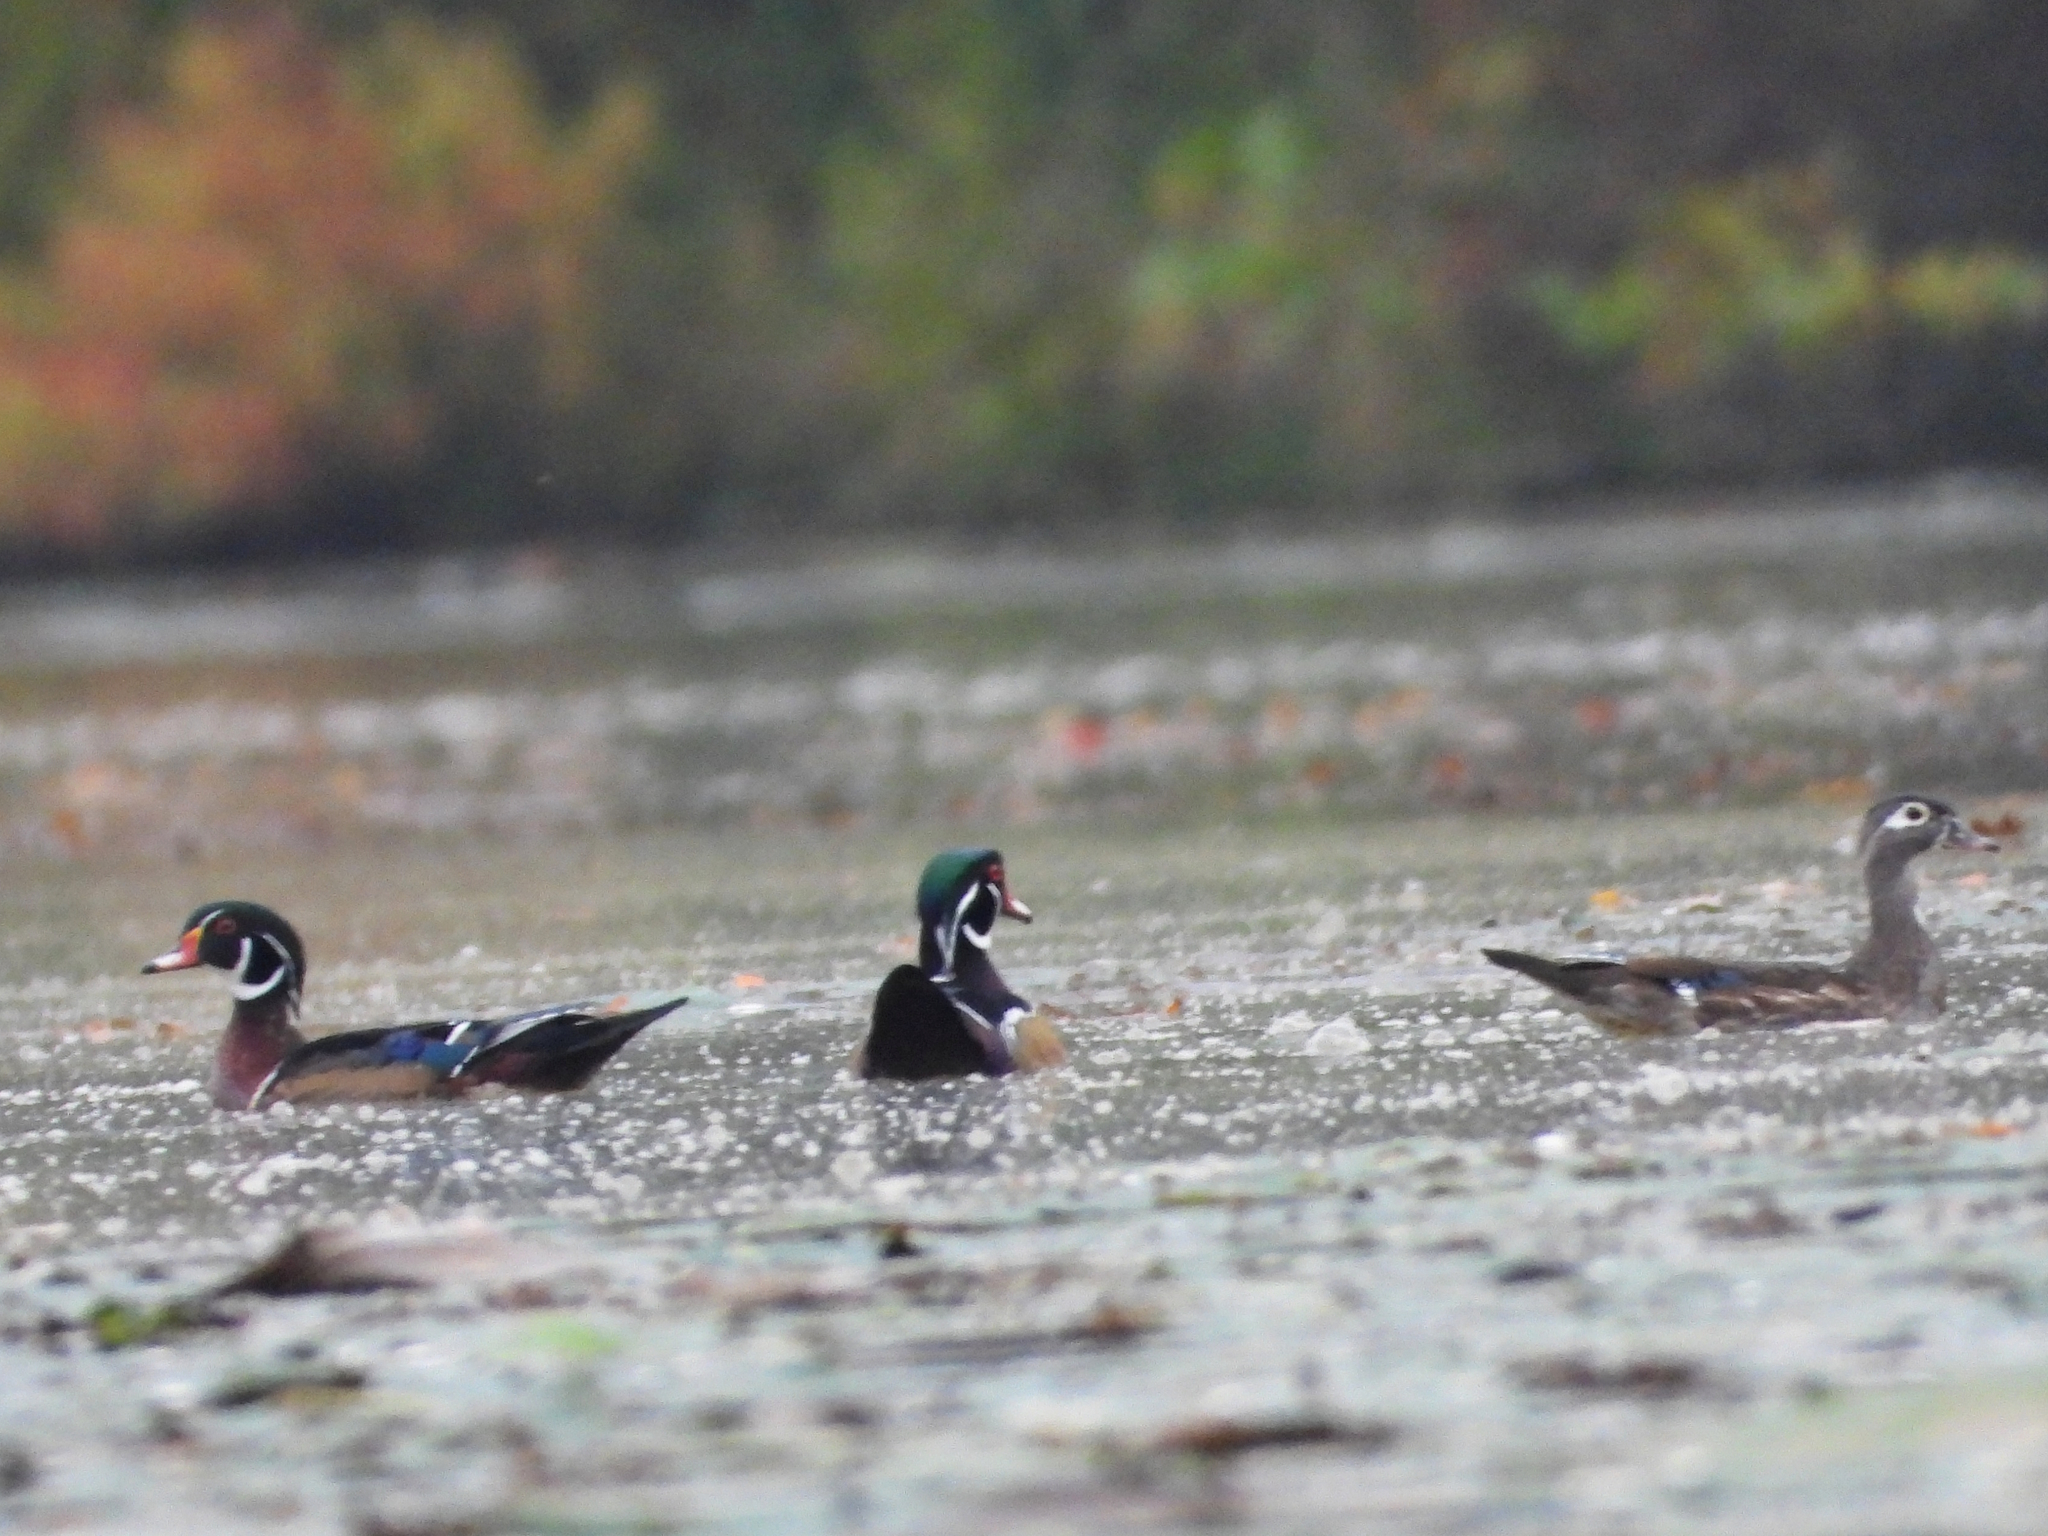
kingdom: Animalia
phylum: Chordata
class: Aves
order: Anseriformes
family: Anatidae
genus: Aix
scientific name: Aix sponsa
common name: Wood duck
